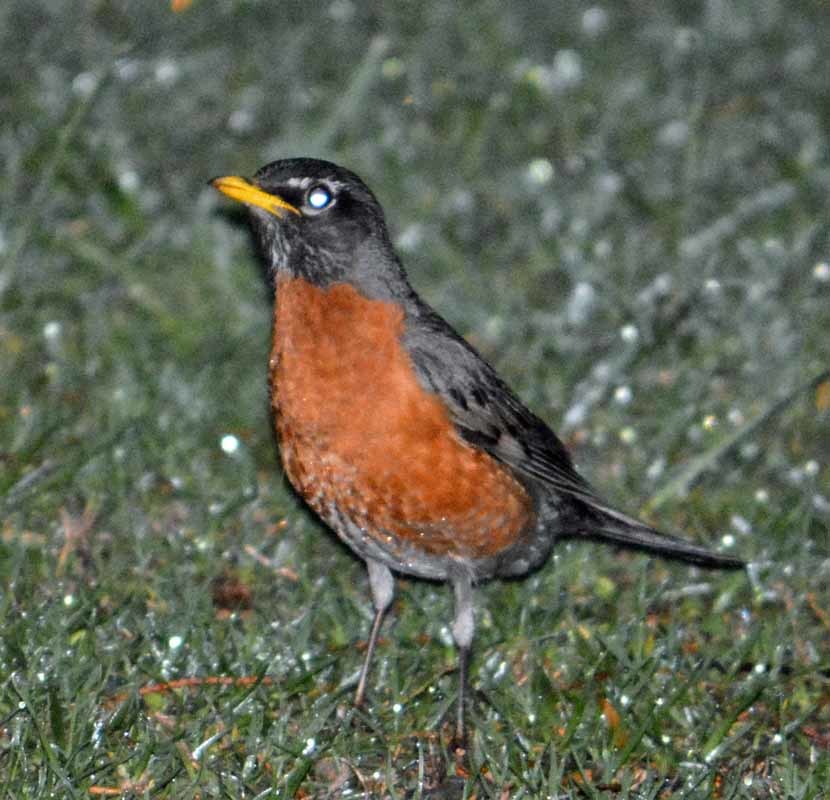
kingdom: Animalia
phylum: Chordata
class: Aves
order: Passeriformes
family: Turdidae
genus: Turdus
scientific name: Turdus migratorius
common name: American robin
